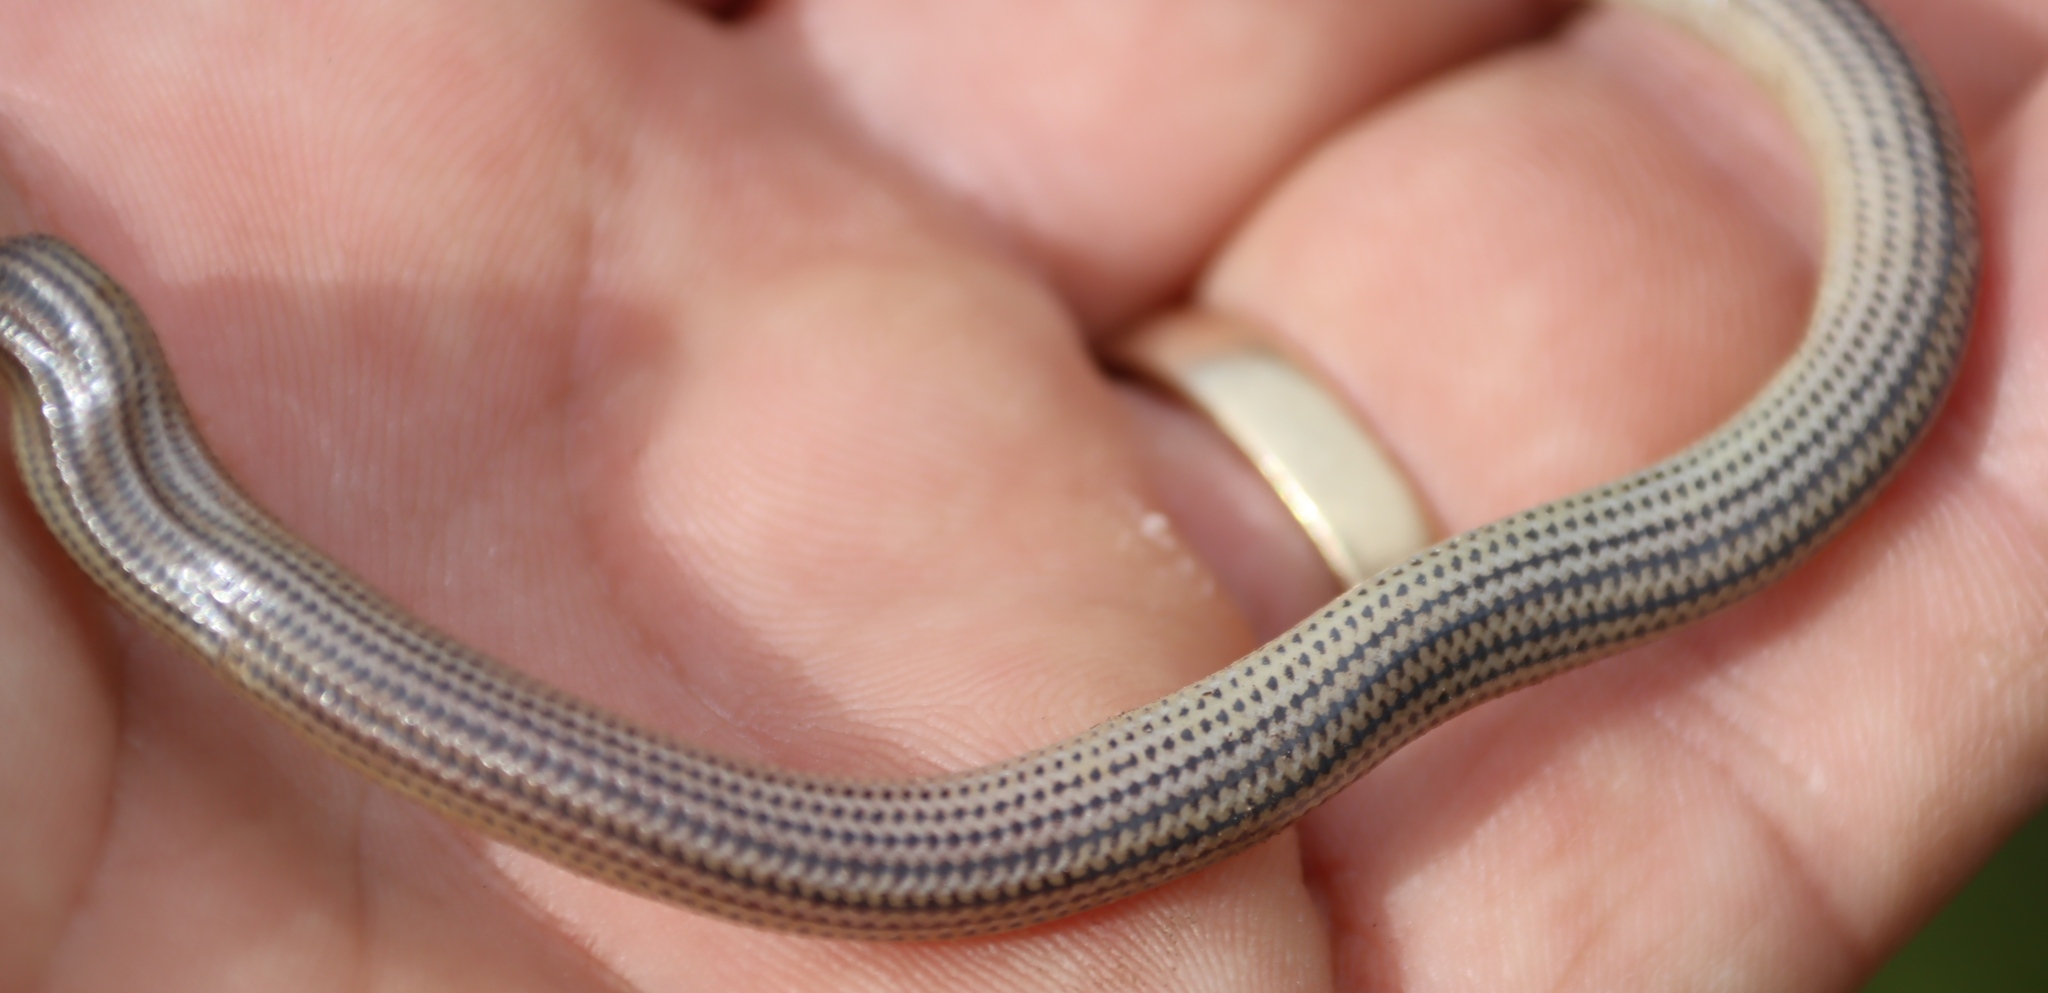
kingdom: Animalia
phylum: Chordata
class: Squamata
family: Scincidae
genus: Acontias
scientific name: Acontias meleagris
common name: Cape legless skink
